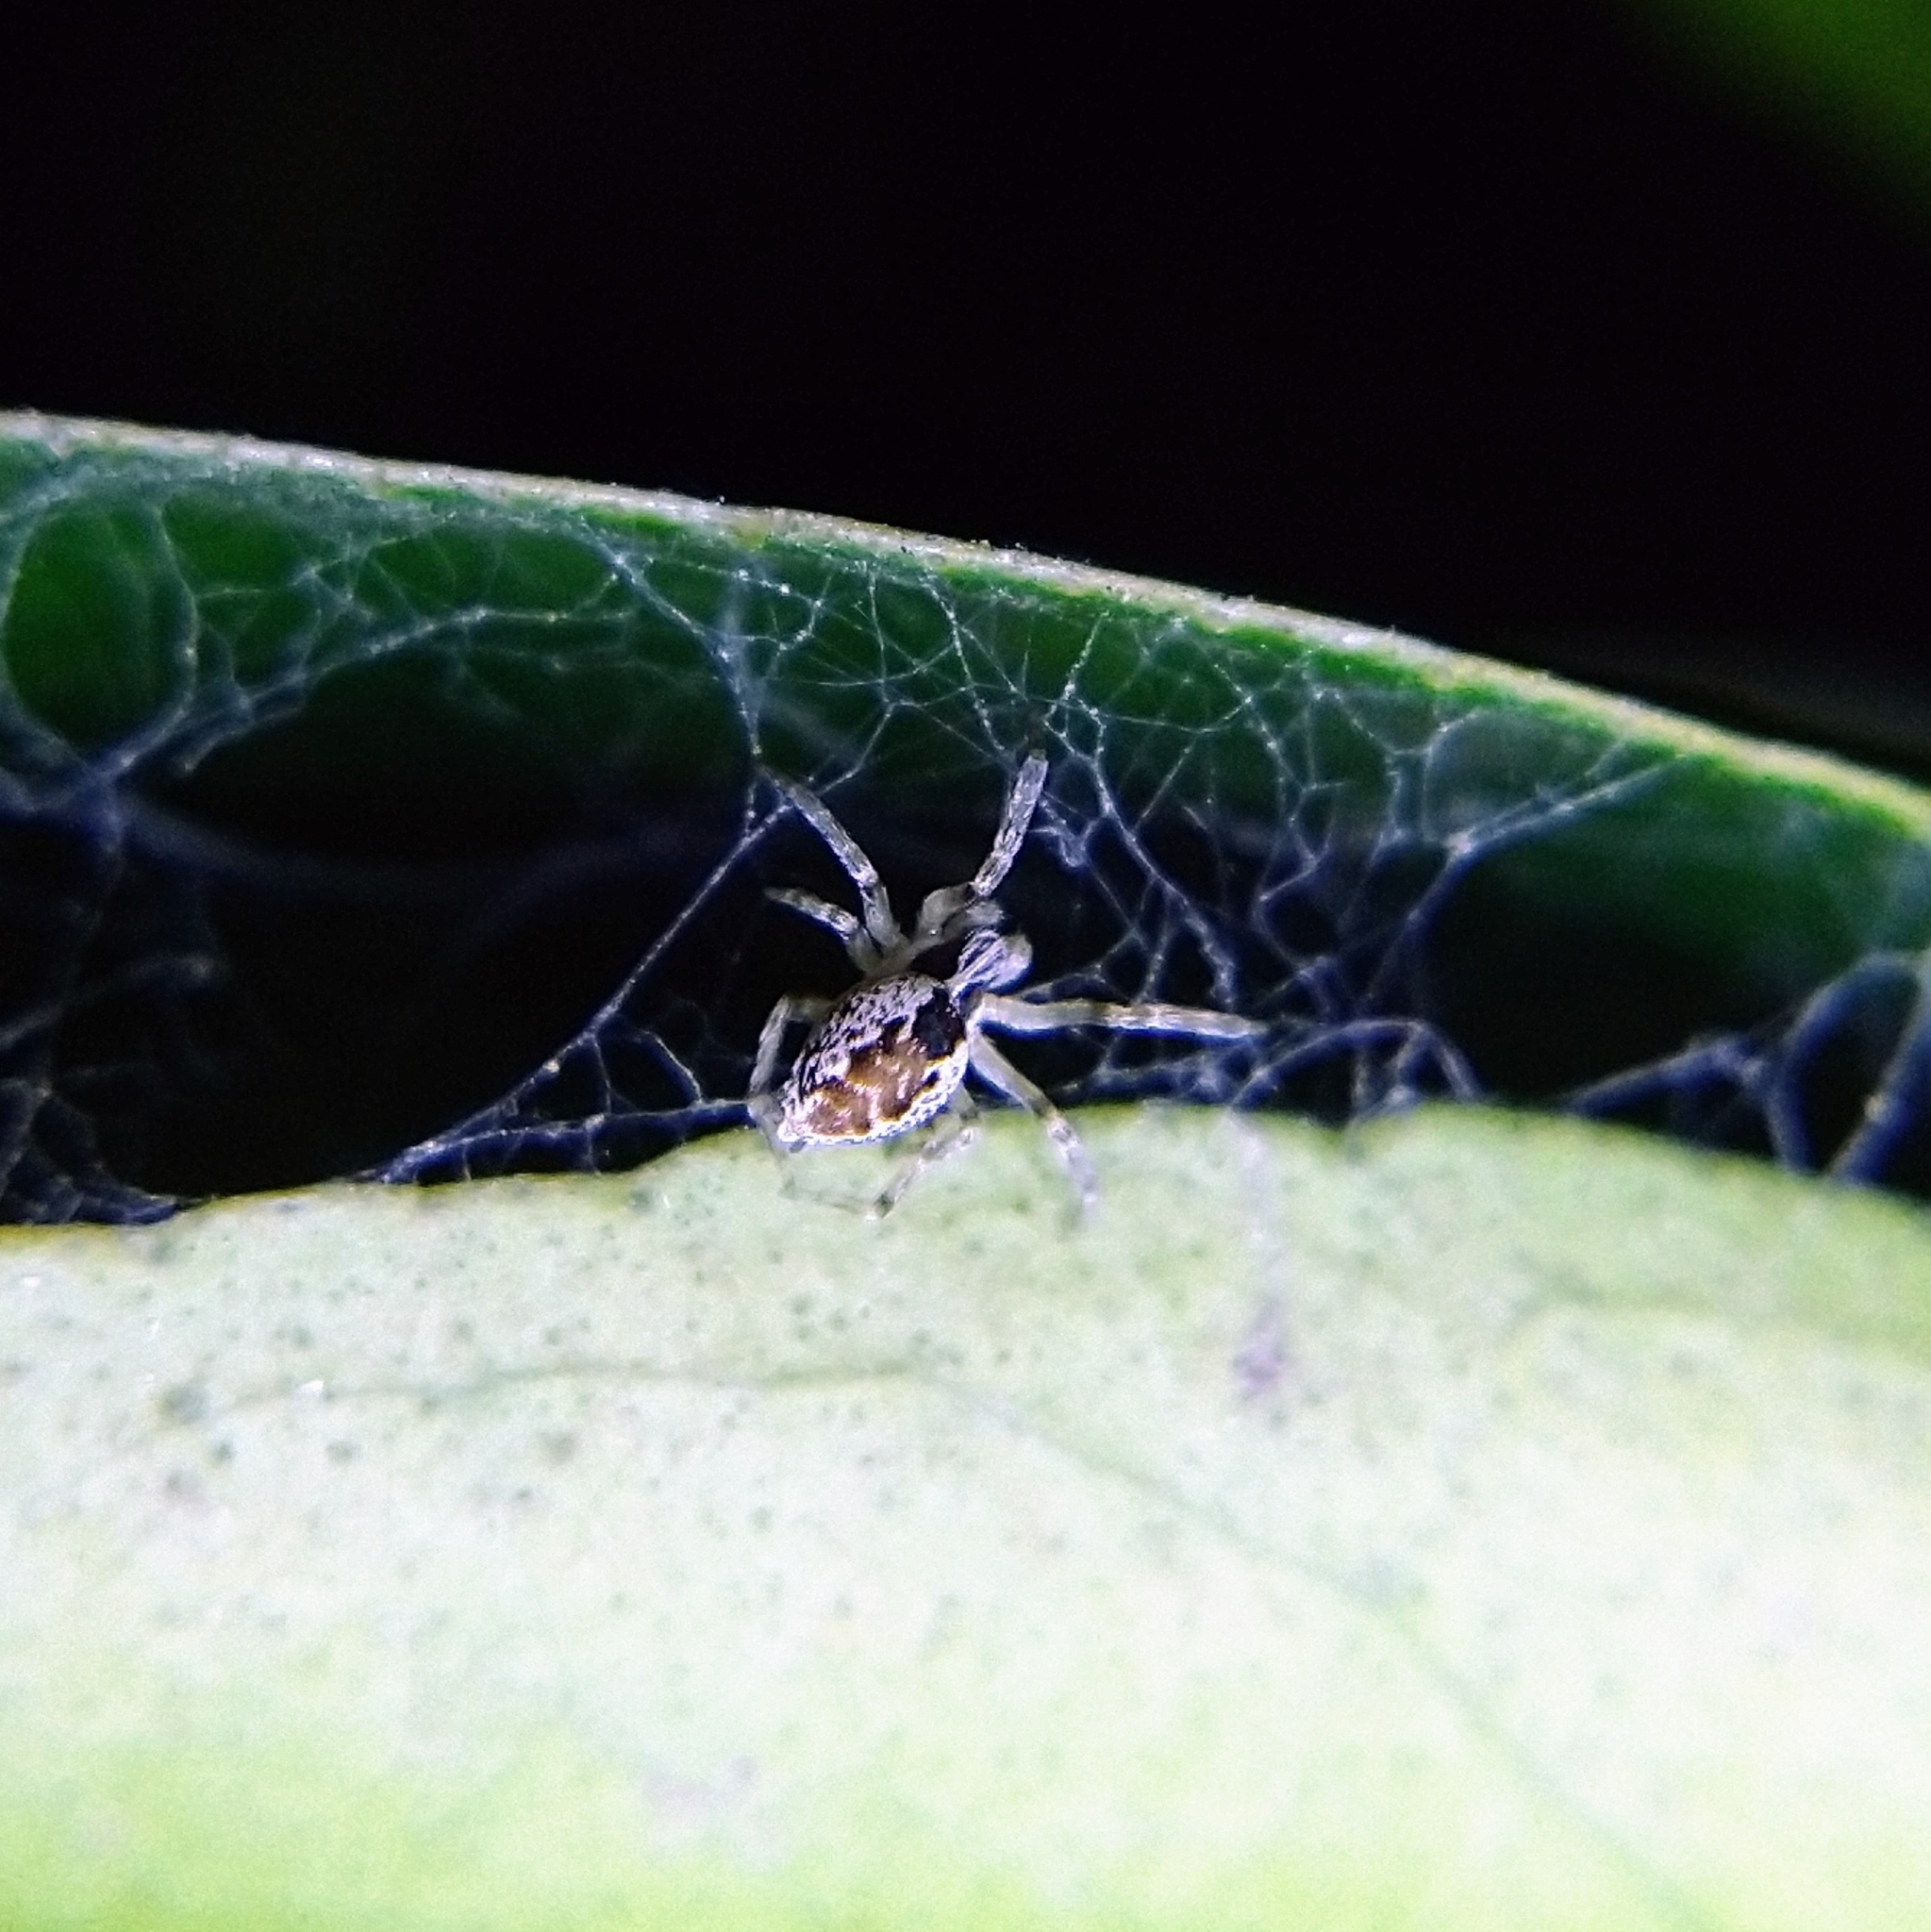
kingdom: Animalia
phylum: Arthropoda
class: Arachnida
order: Araneae
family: Dictynidae
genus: Mallos
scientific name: Mallos
